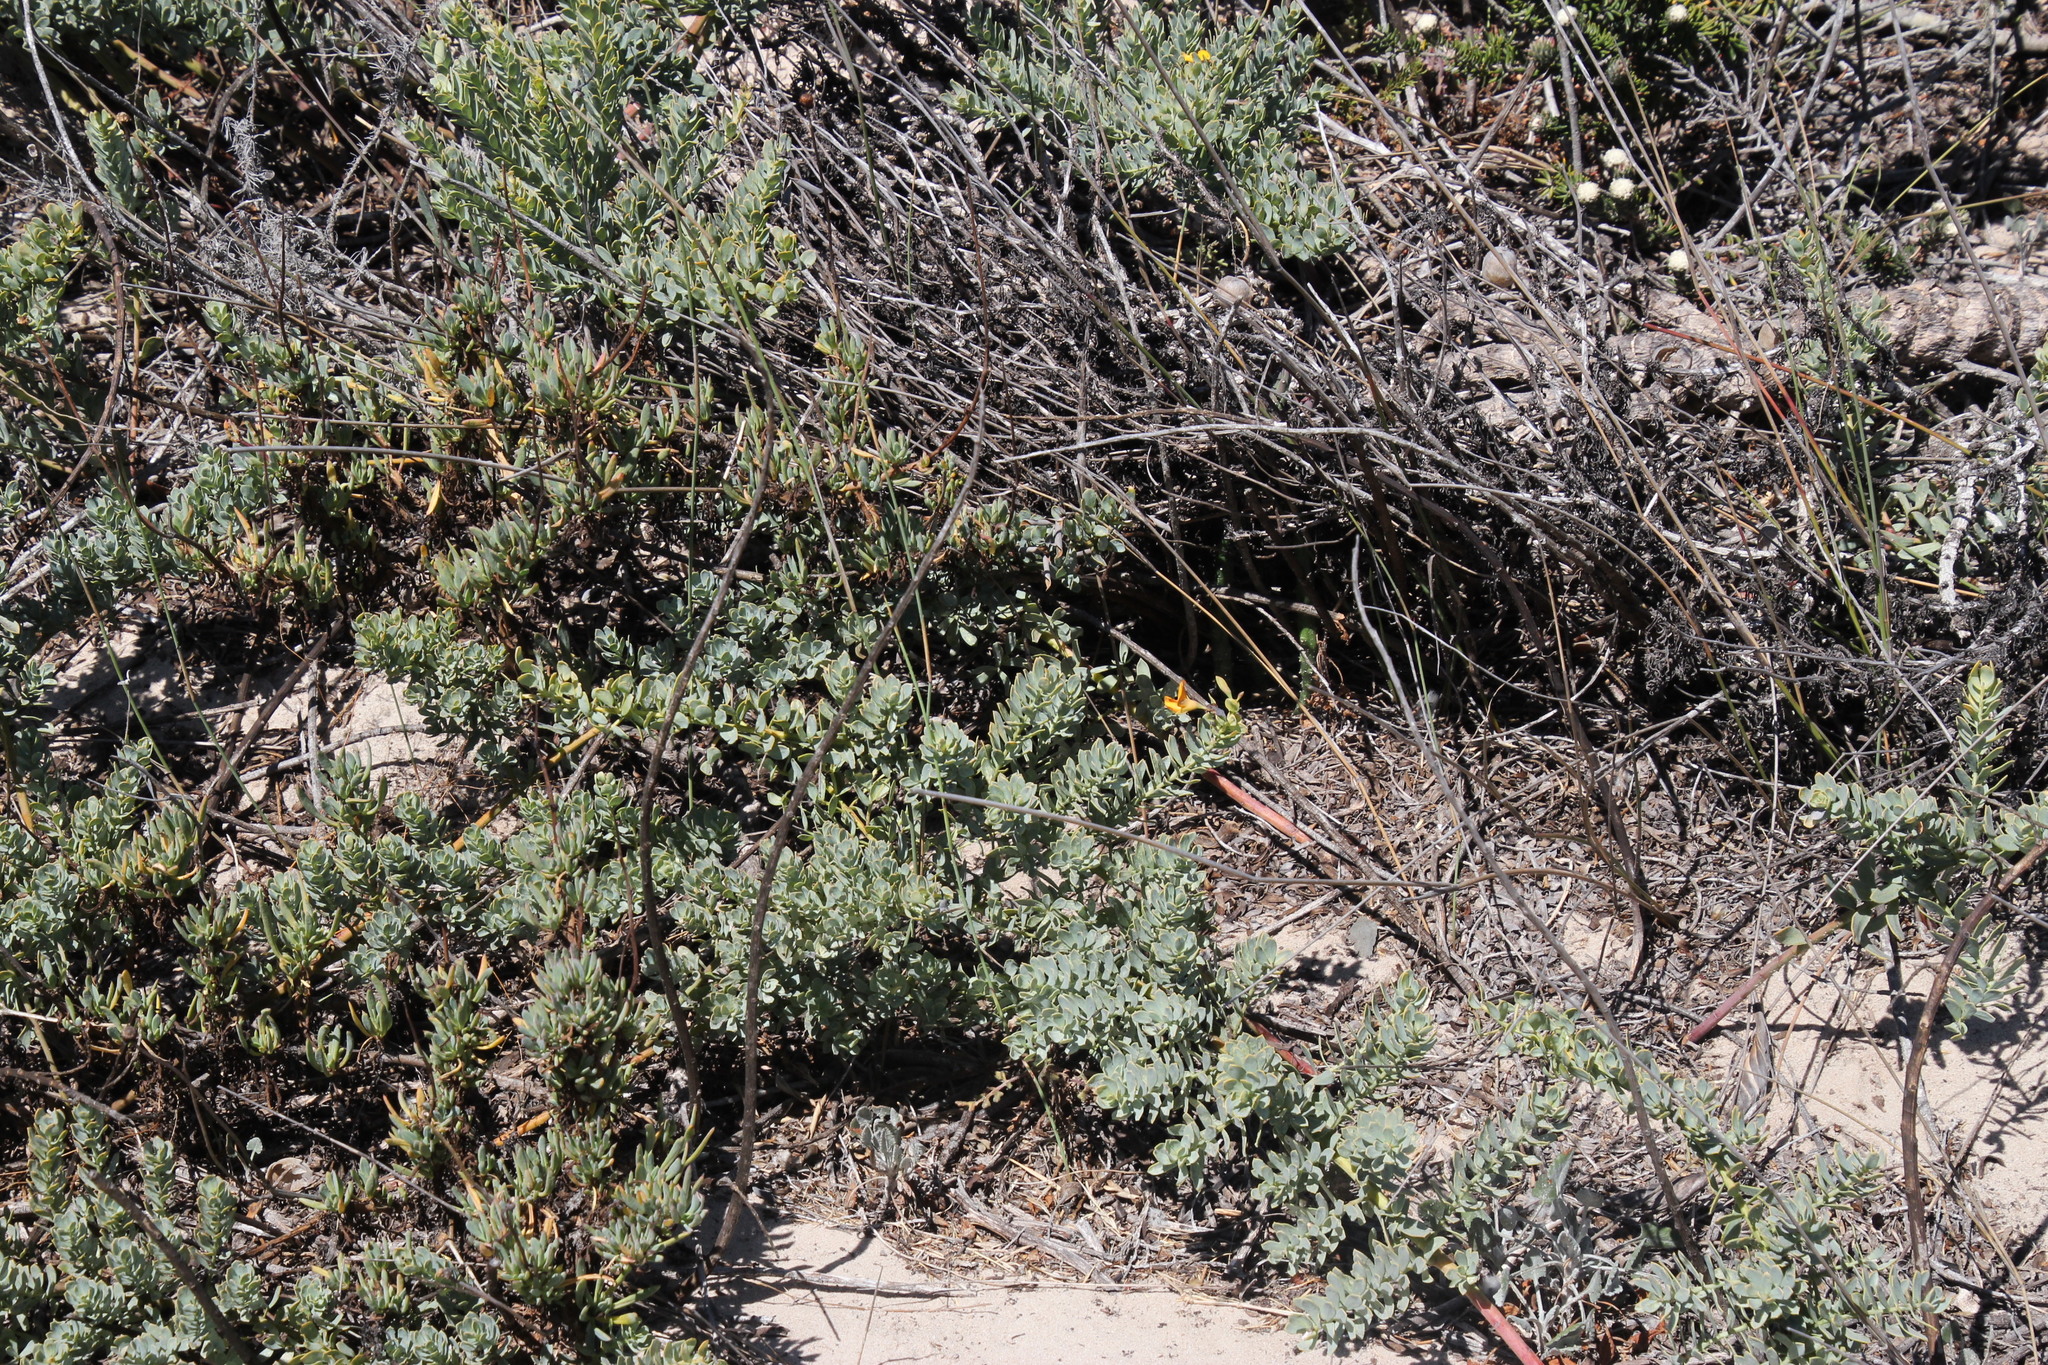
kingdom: Plantae
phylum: Tracheophyta
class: Magnoliopsida
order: Fabales
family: Fabaceae
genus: Rafnia
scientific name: Rafnia angulata
